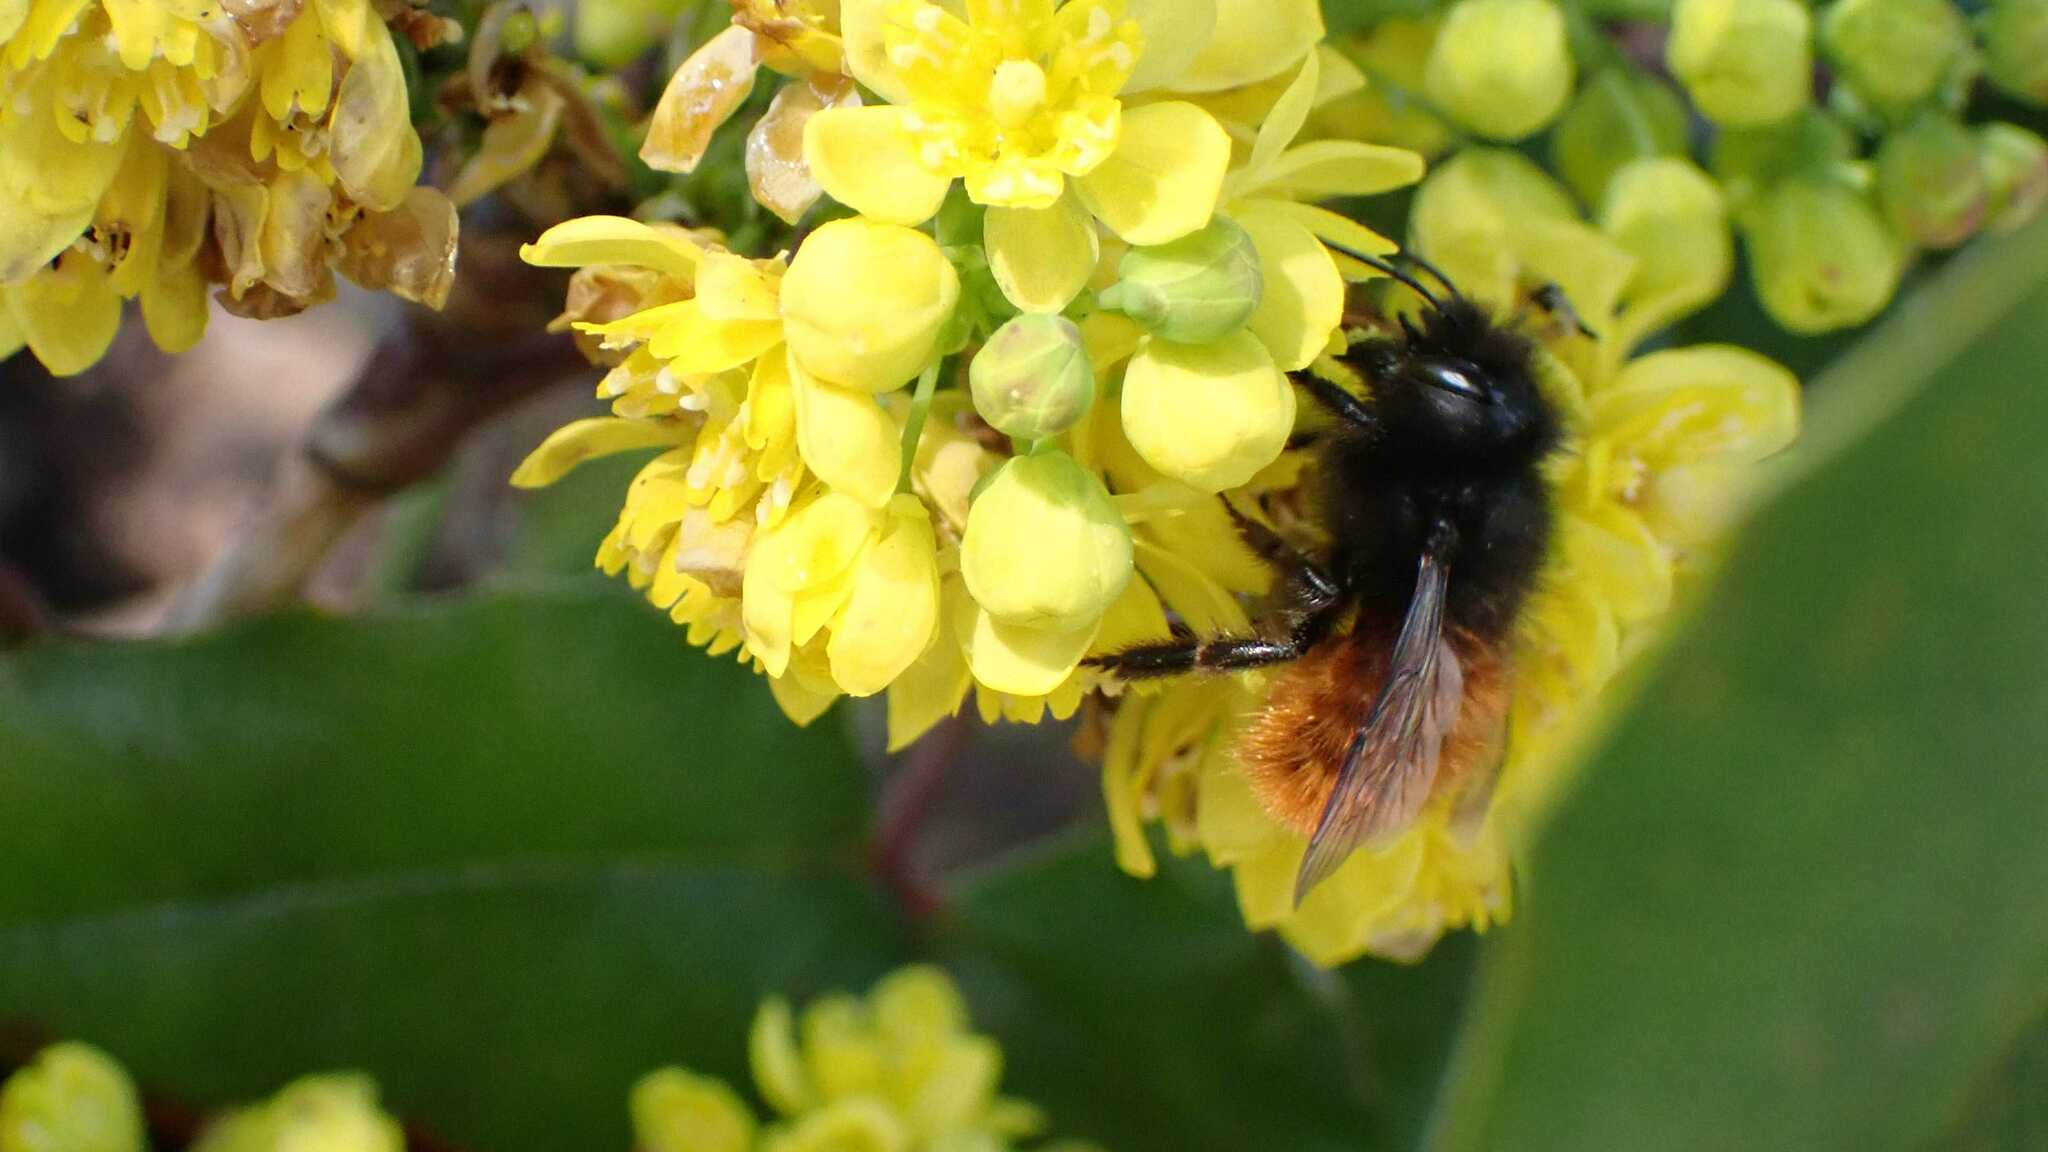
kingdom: Animalia
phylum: Arthropoda
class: Insecta
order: Hymenoptera
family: Megachilidae
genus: Osmia
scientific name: Osmia cornuta
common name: Mason bee
